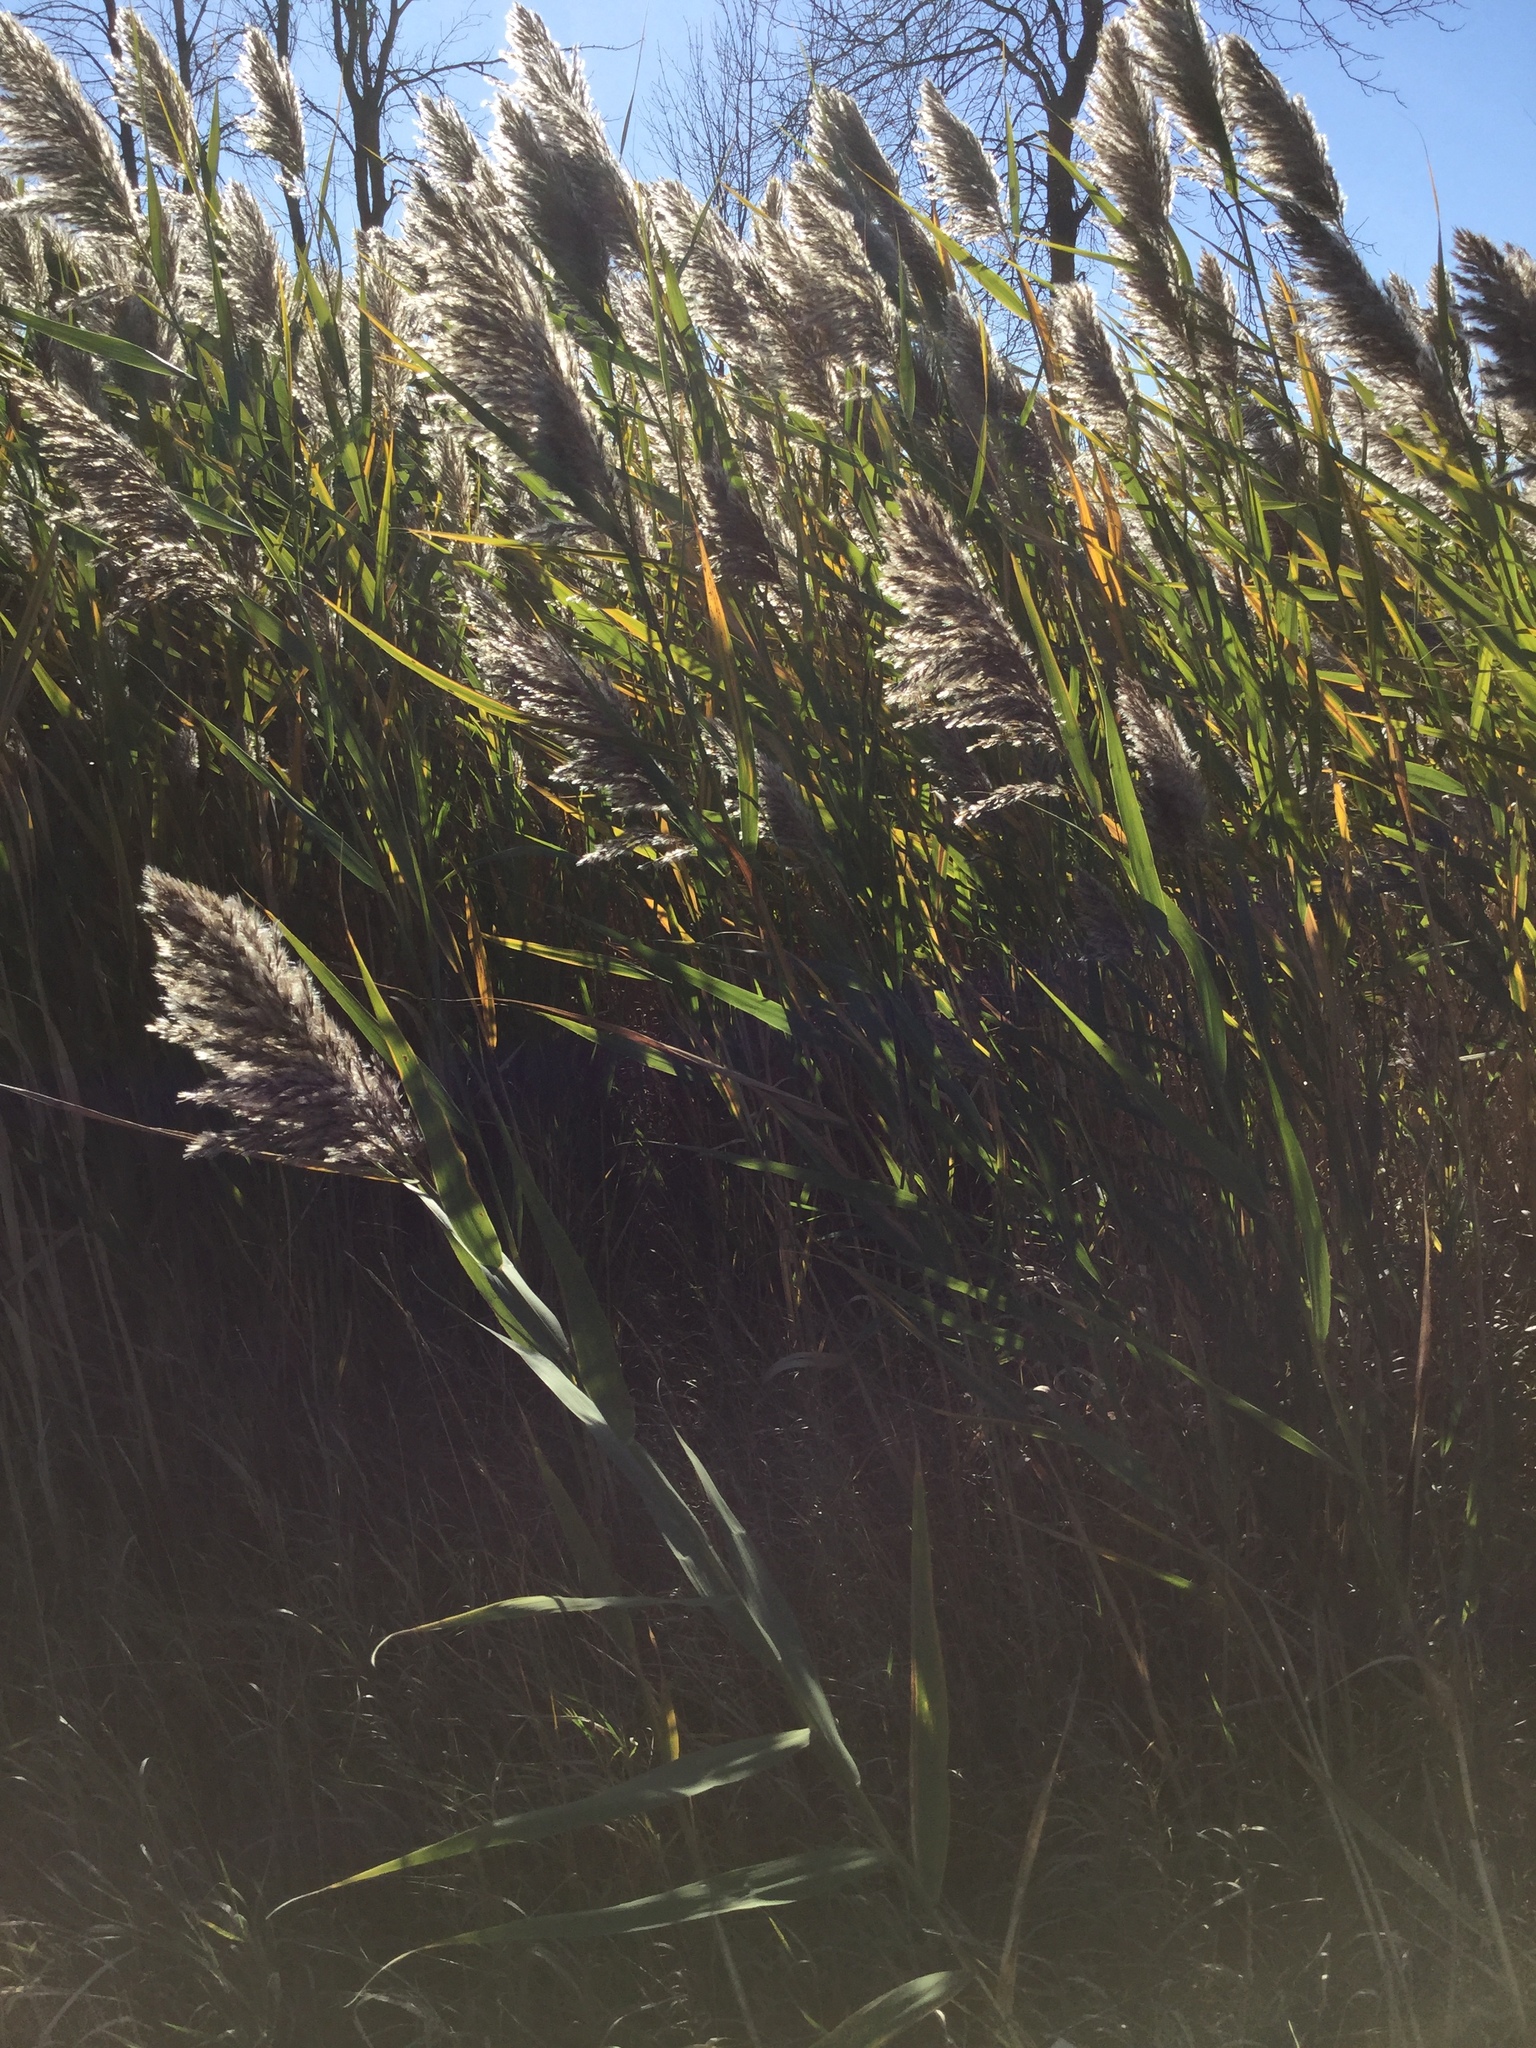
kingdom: Plantae
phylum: Tracheophyta
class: Liliopsida
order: Poales
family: Poaceae
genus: Phragmites
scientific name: Phragmites australis
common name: Common reed
